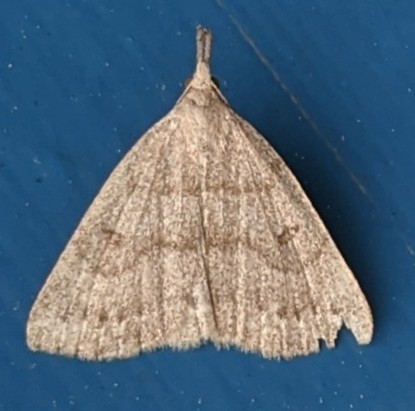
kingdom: Animalia
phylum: Arthropoda
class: Insecta
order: Lepidoptera
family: Erebidae
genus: Macrochilo
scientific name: Macrochilo morbidalis
